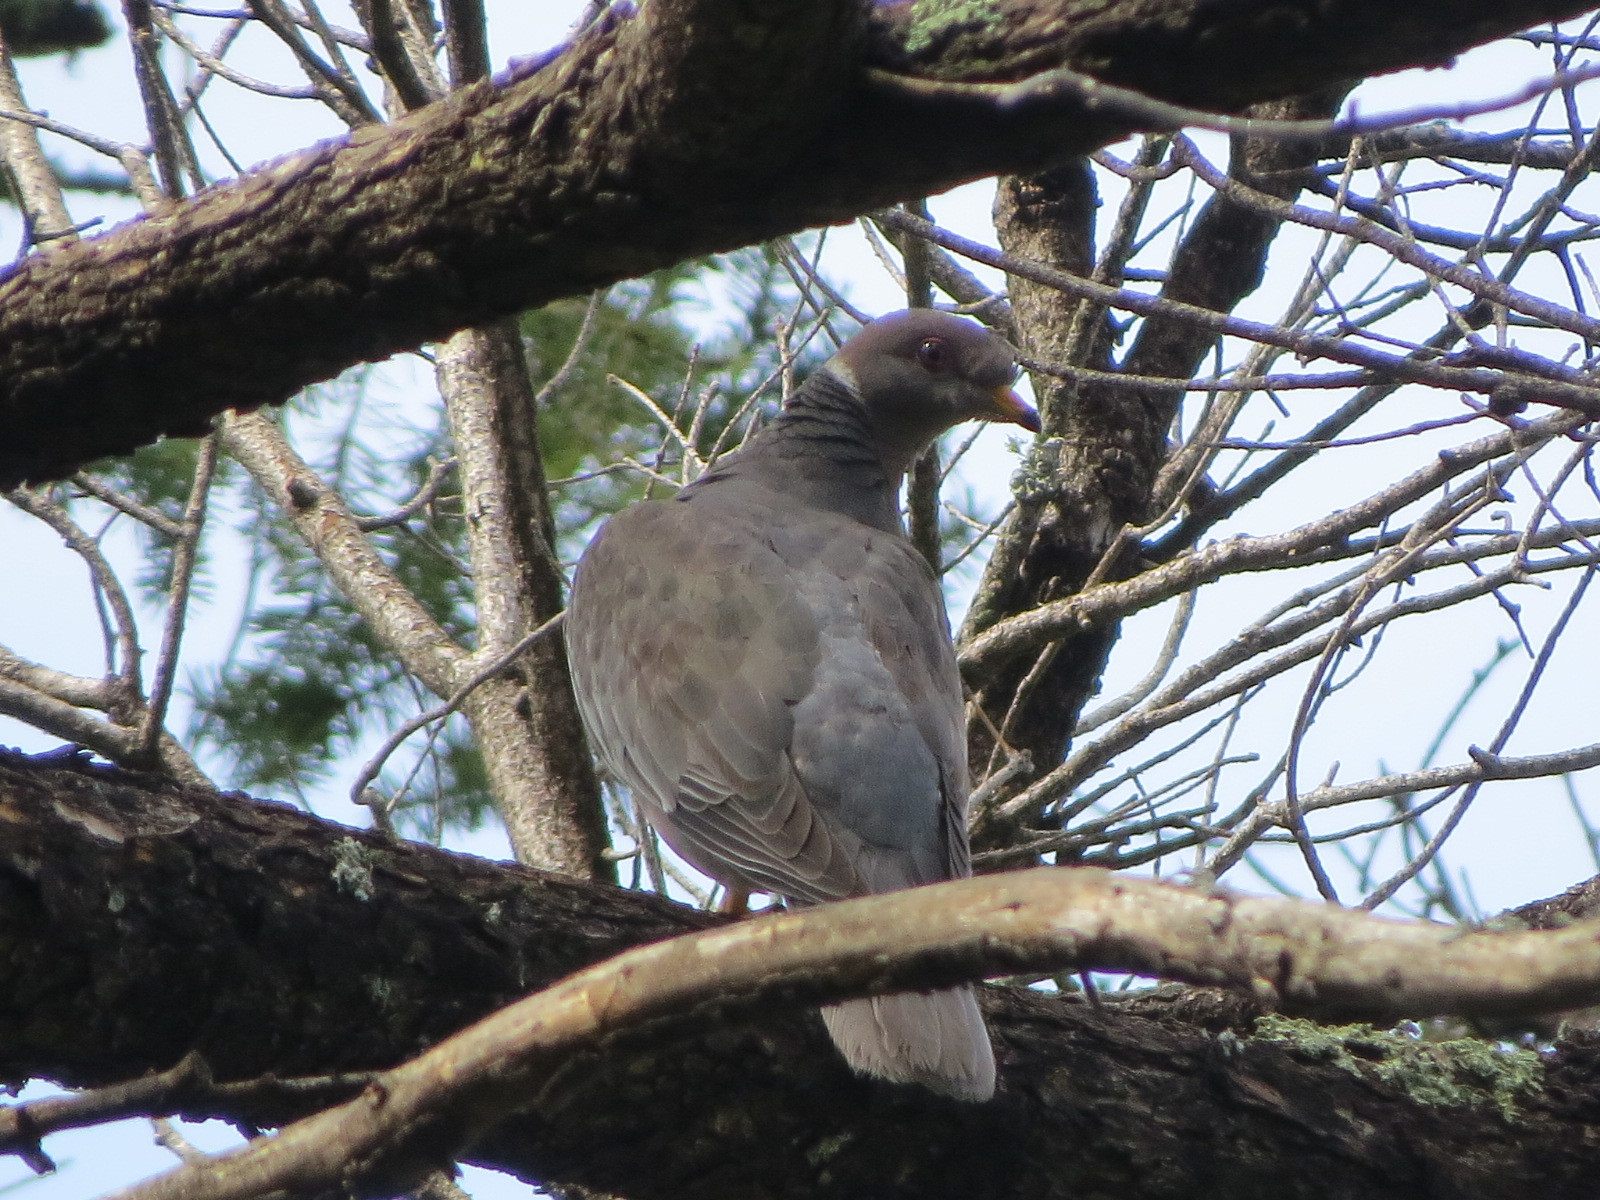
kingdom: Animalia
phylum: Chordata
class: Aves
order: Columbiformes
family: Columbidae
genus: Patagioenas
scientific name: Patagioenas fasciata
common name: Band-tailed pigeon
